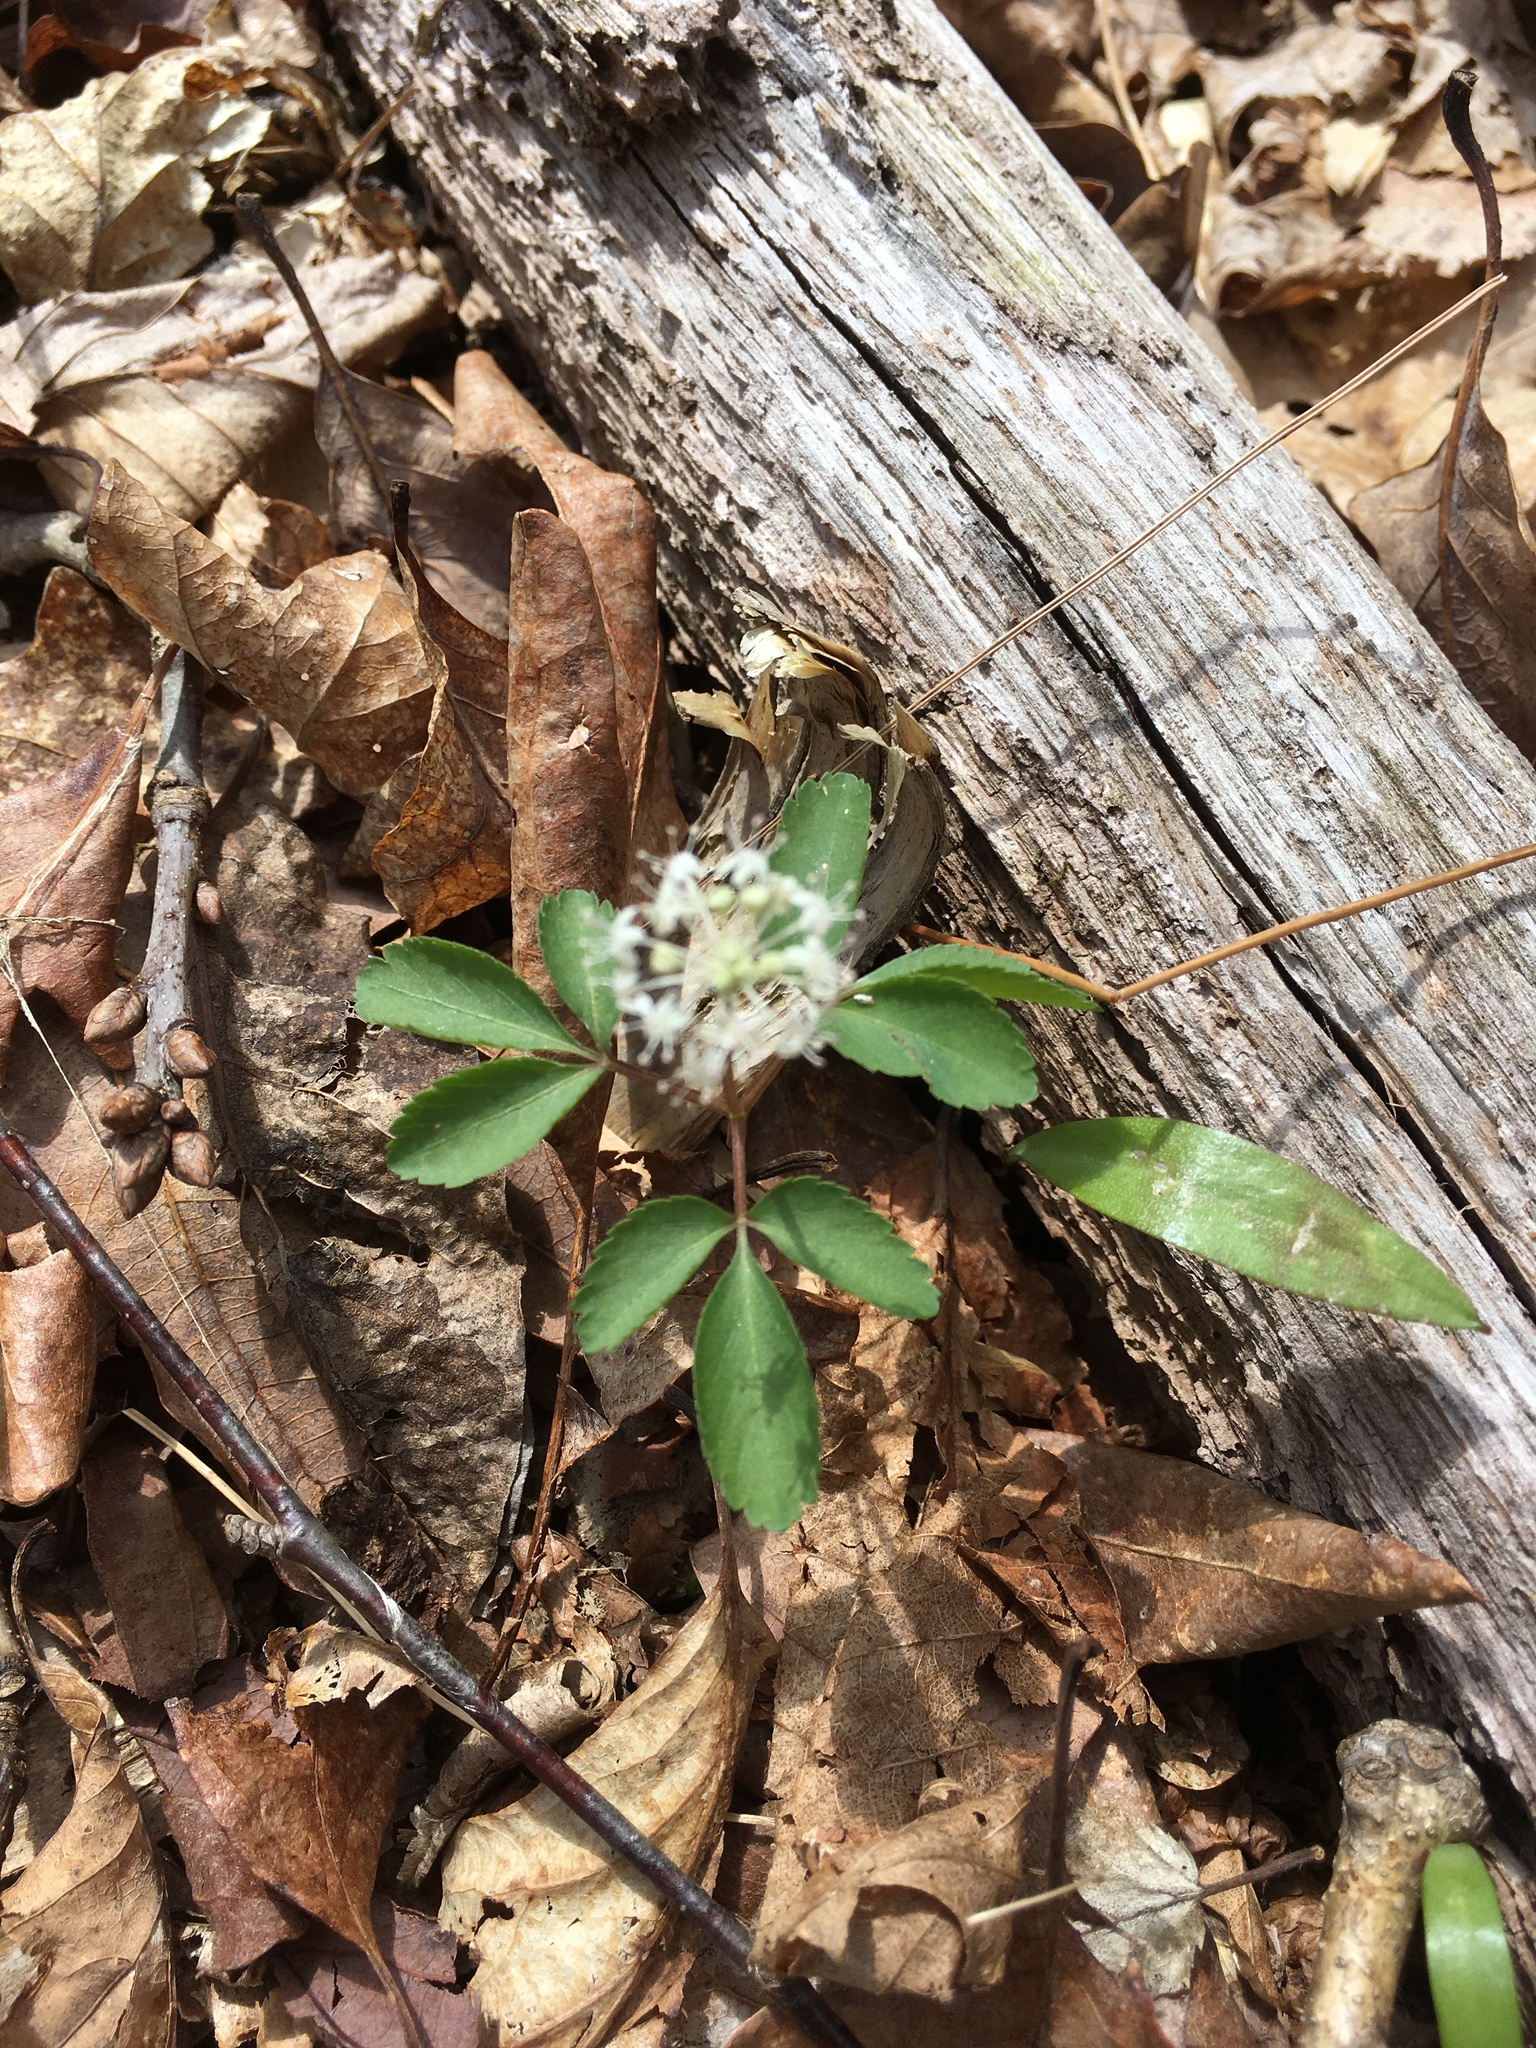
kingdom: Plantae
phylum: Tracheophyta
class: Magnoliopsida
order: Apiales
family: Araliaceae
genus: Panax
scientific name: Panax trifolius
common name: Dwarf ginseng
